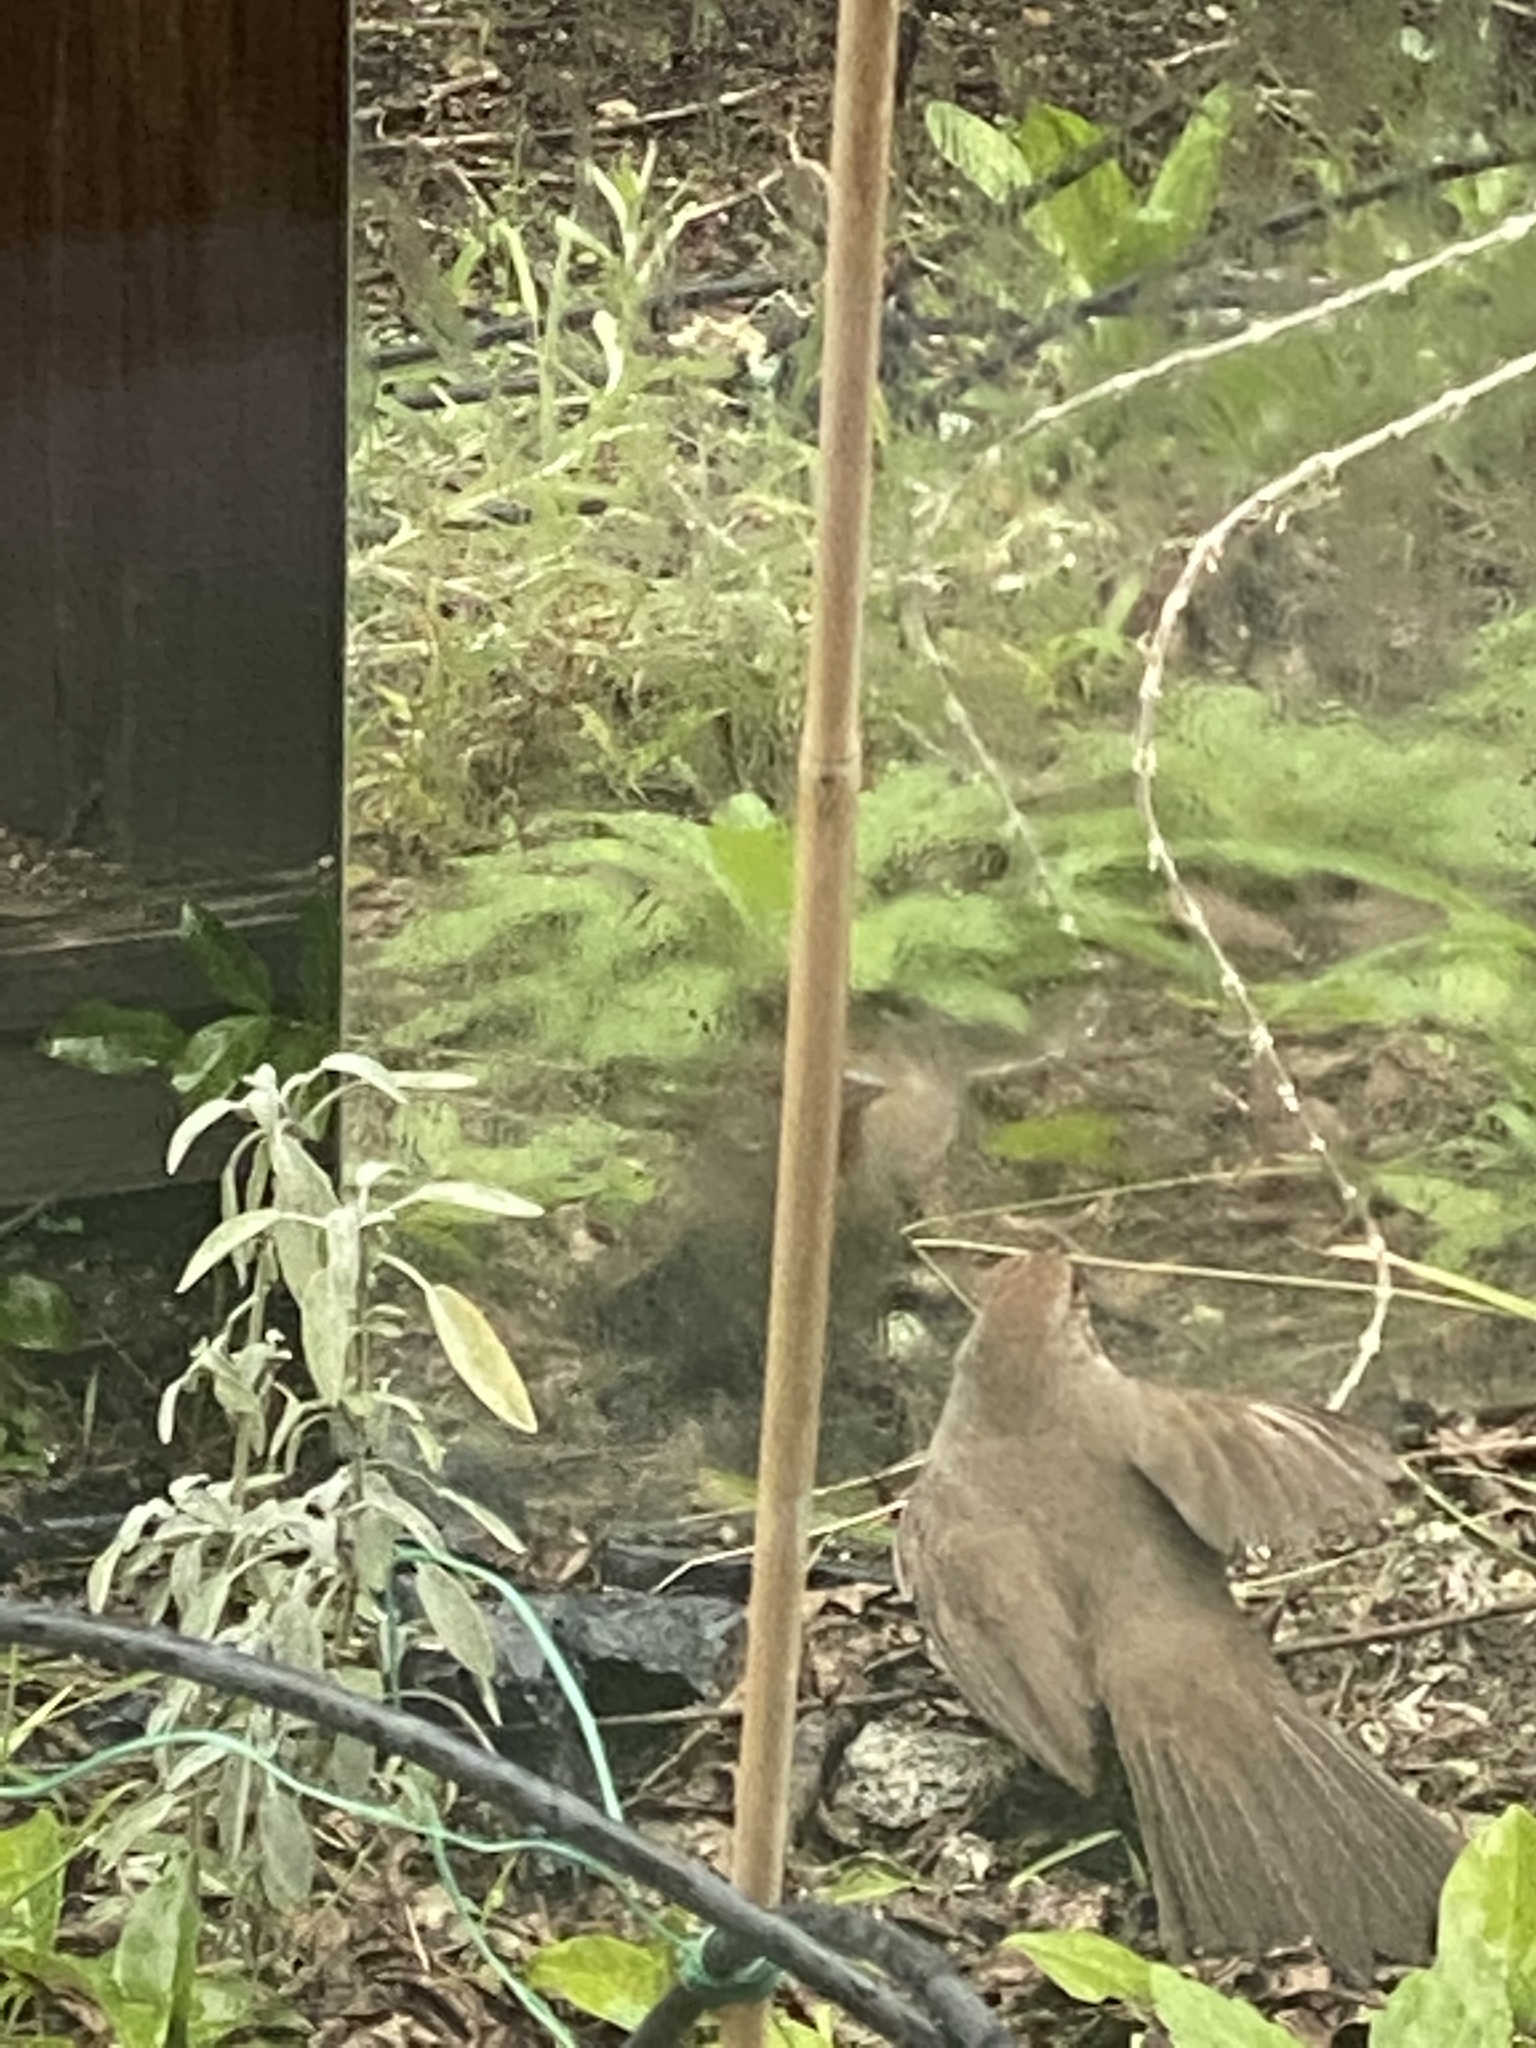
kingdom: Animalia
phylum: Chordata
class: Aves
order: Passeriformes
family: Passerellidae
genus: Melozone
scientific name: Melozone crissalis
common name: California towhee
